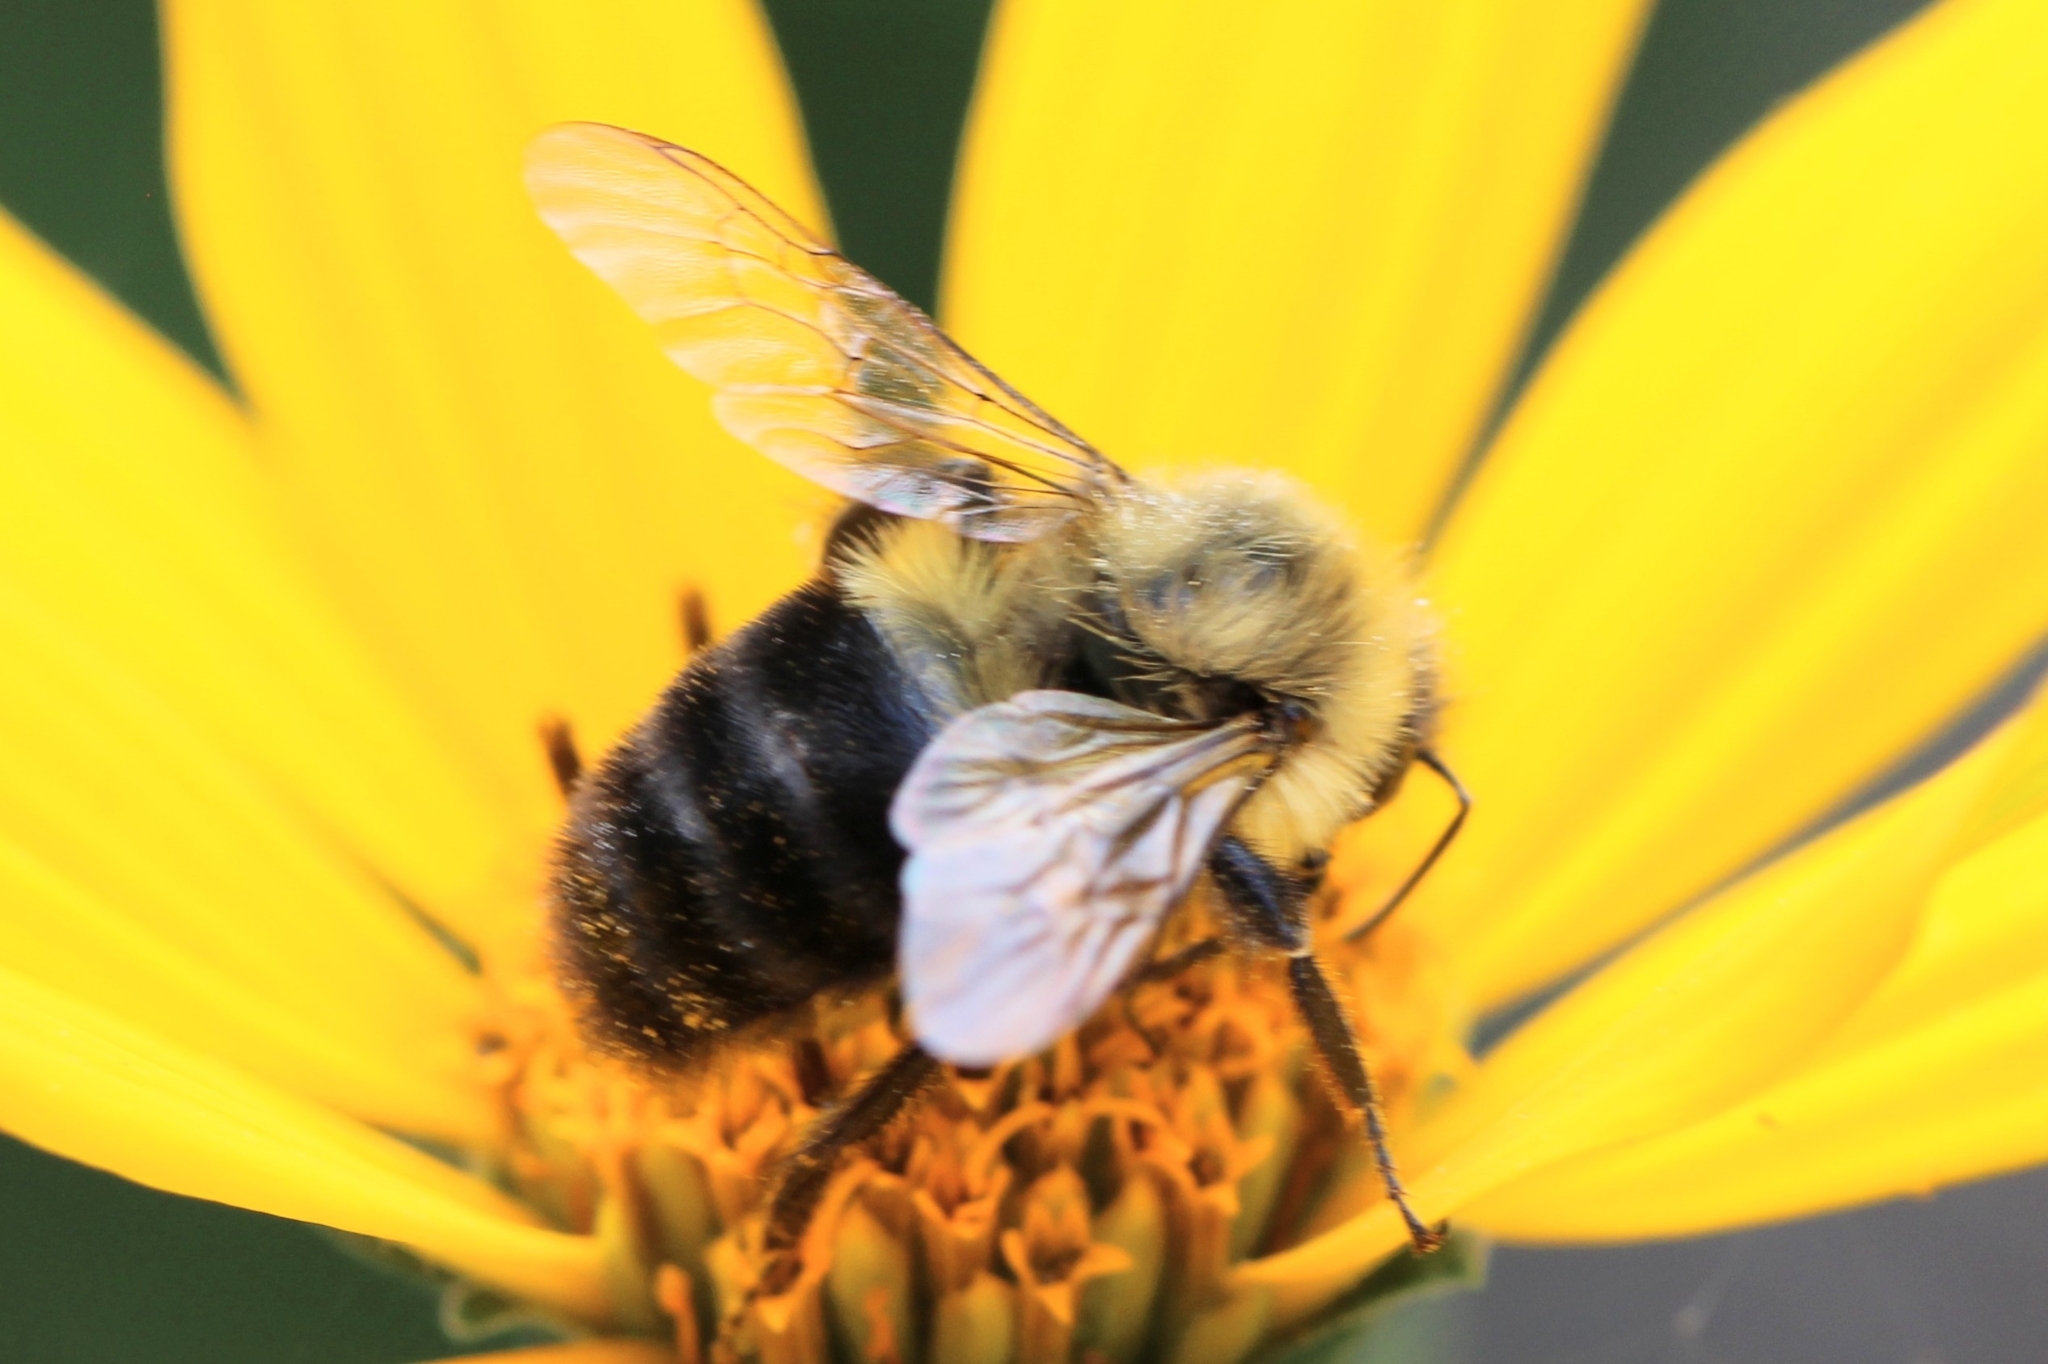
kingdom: Animalia
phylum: Arthropoda
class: Insecta
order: Hymenoptera
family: Apidae
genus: Bombus
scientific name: Bombus impatiens
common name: Common eastern bumble bee
